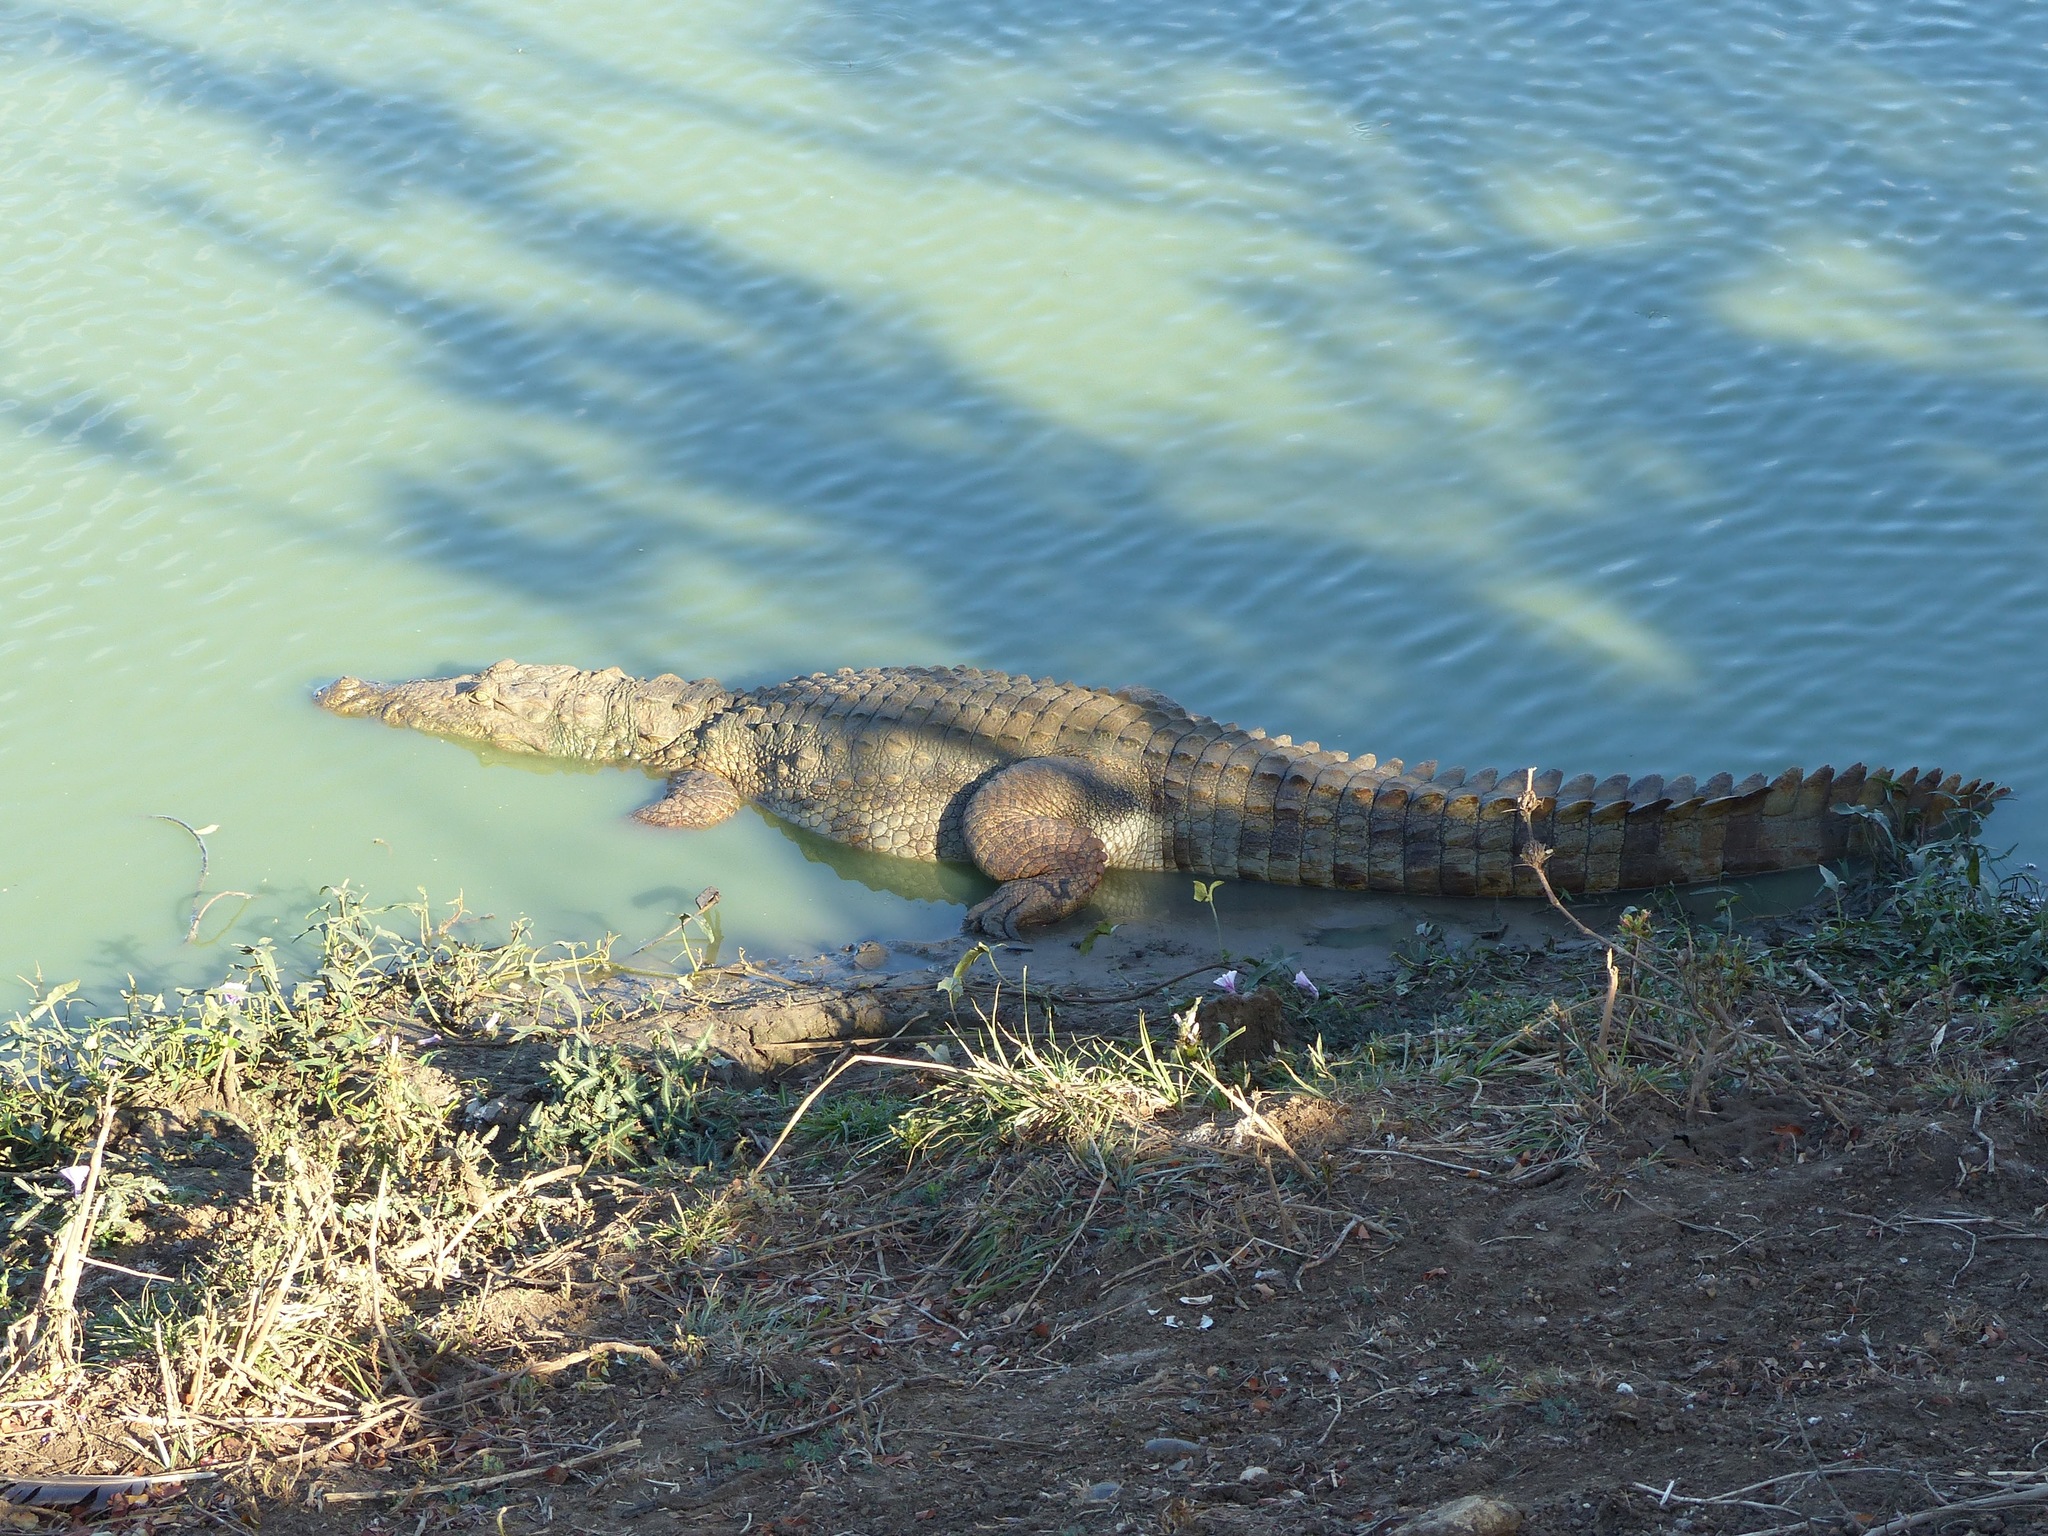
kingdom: Animalia
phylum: Chordata
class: Crocodylia
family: Crocodylidae
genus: Crocodylus
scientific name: Crocodylus palustris
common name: Mugger crocodile
